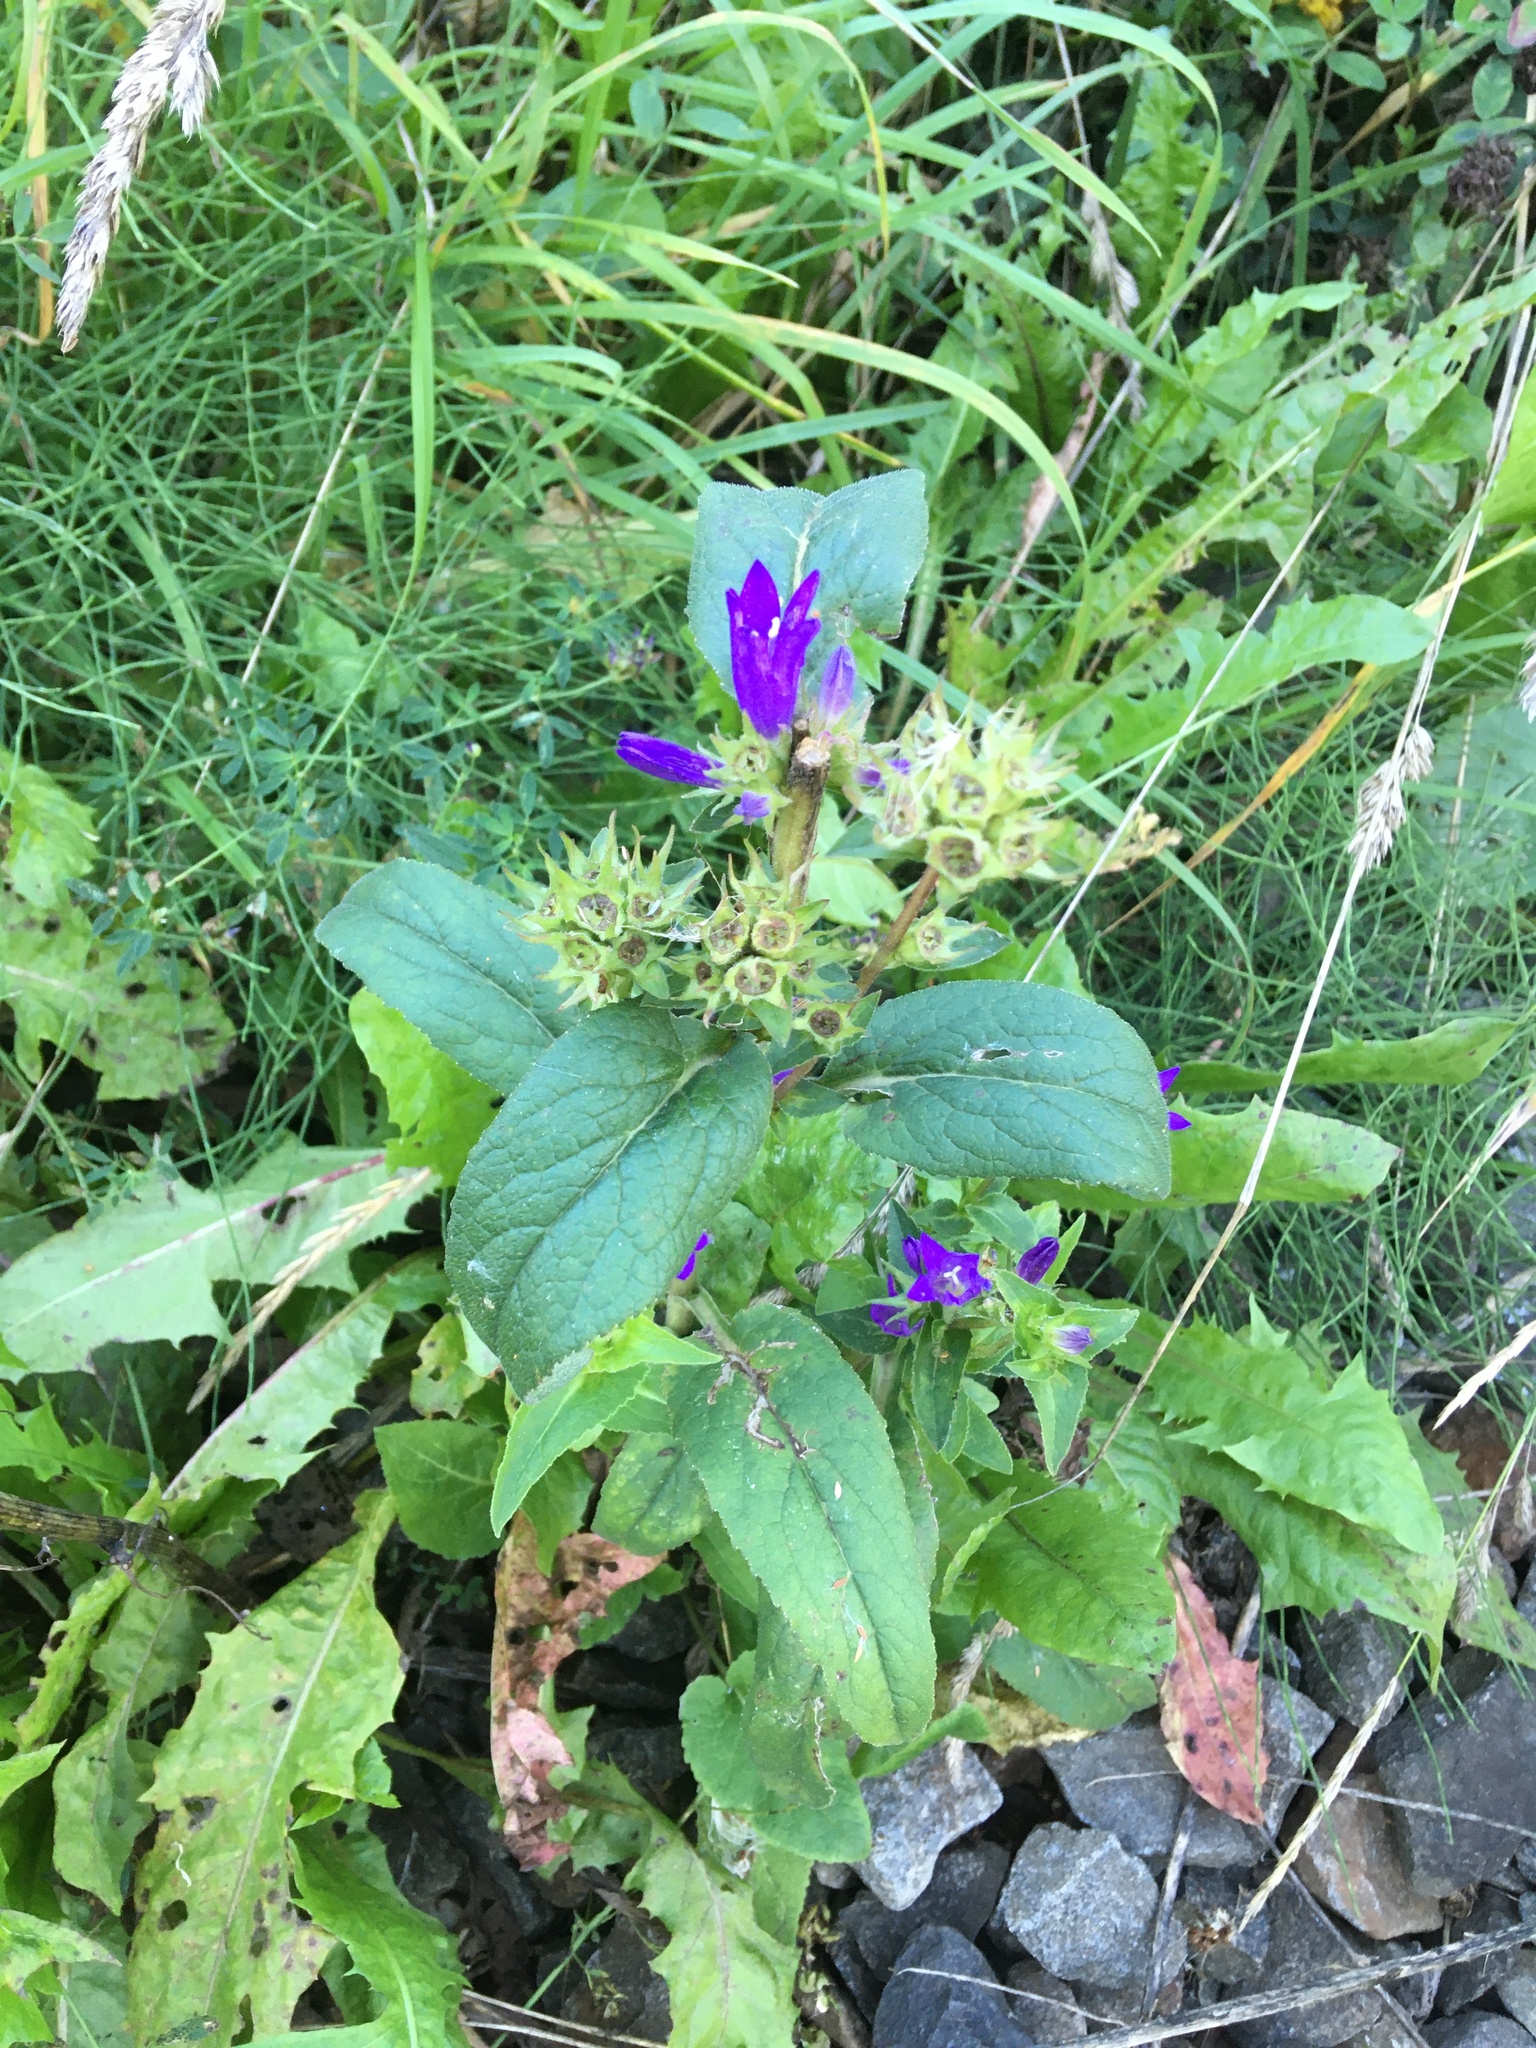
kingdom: Plantae
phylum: Tracheophyta
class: Magnoliopsida
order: Asterales
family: Campanulaceae
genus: Campanula
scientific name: Campanula glomerata
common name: Clustered bellflower
